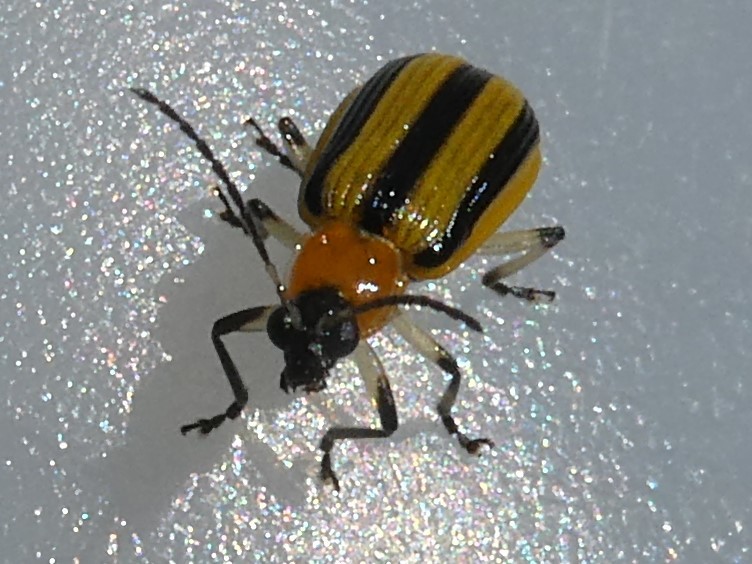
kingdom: Animalia
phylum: Arthropoda
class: Insecta
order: Coleoptera
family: Chrysomelidae
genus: Acalymma
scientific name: Acalymma vittatum
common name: Striped cucumber beetle
